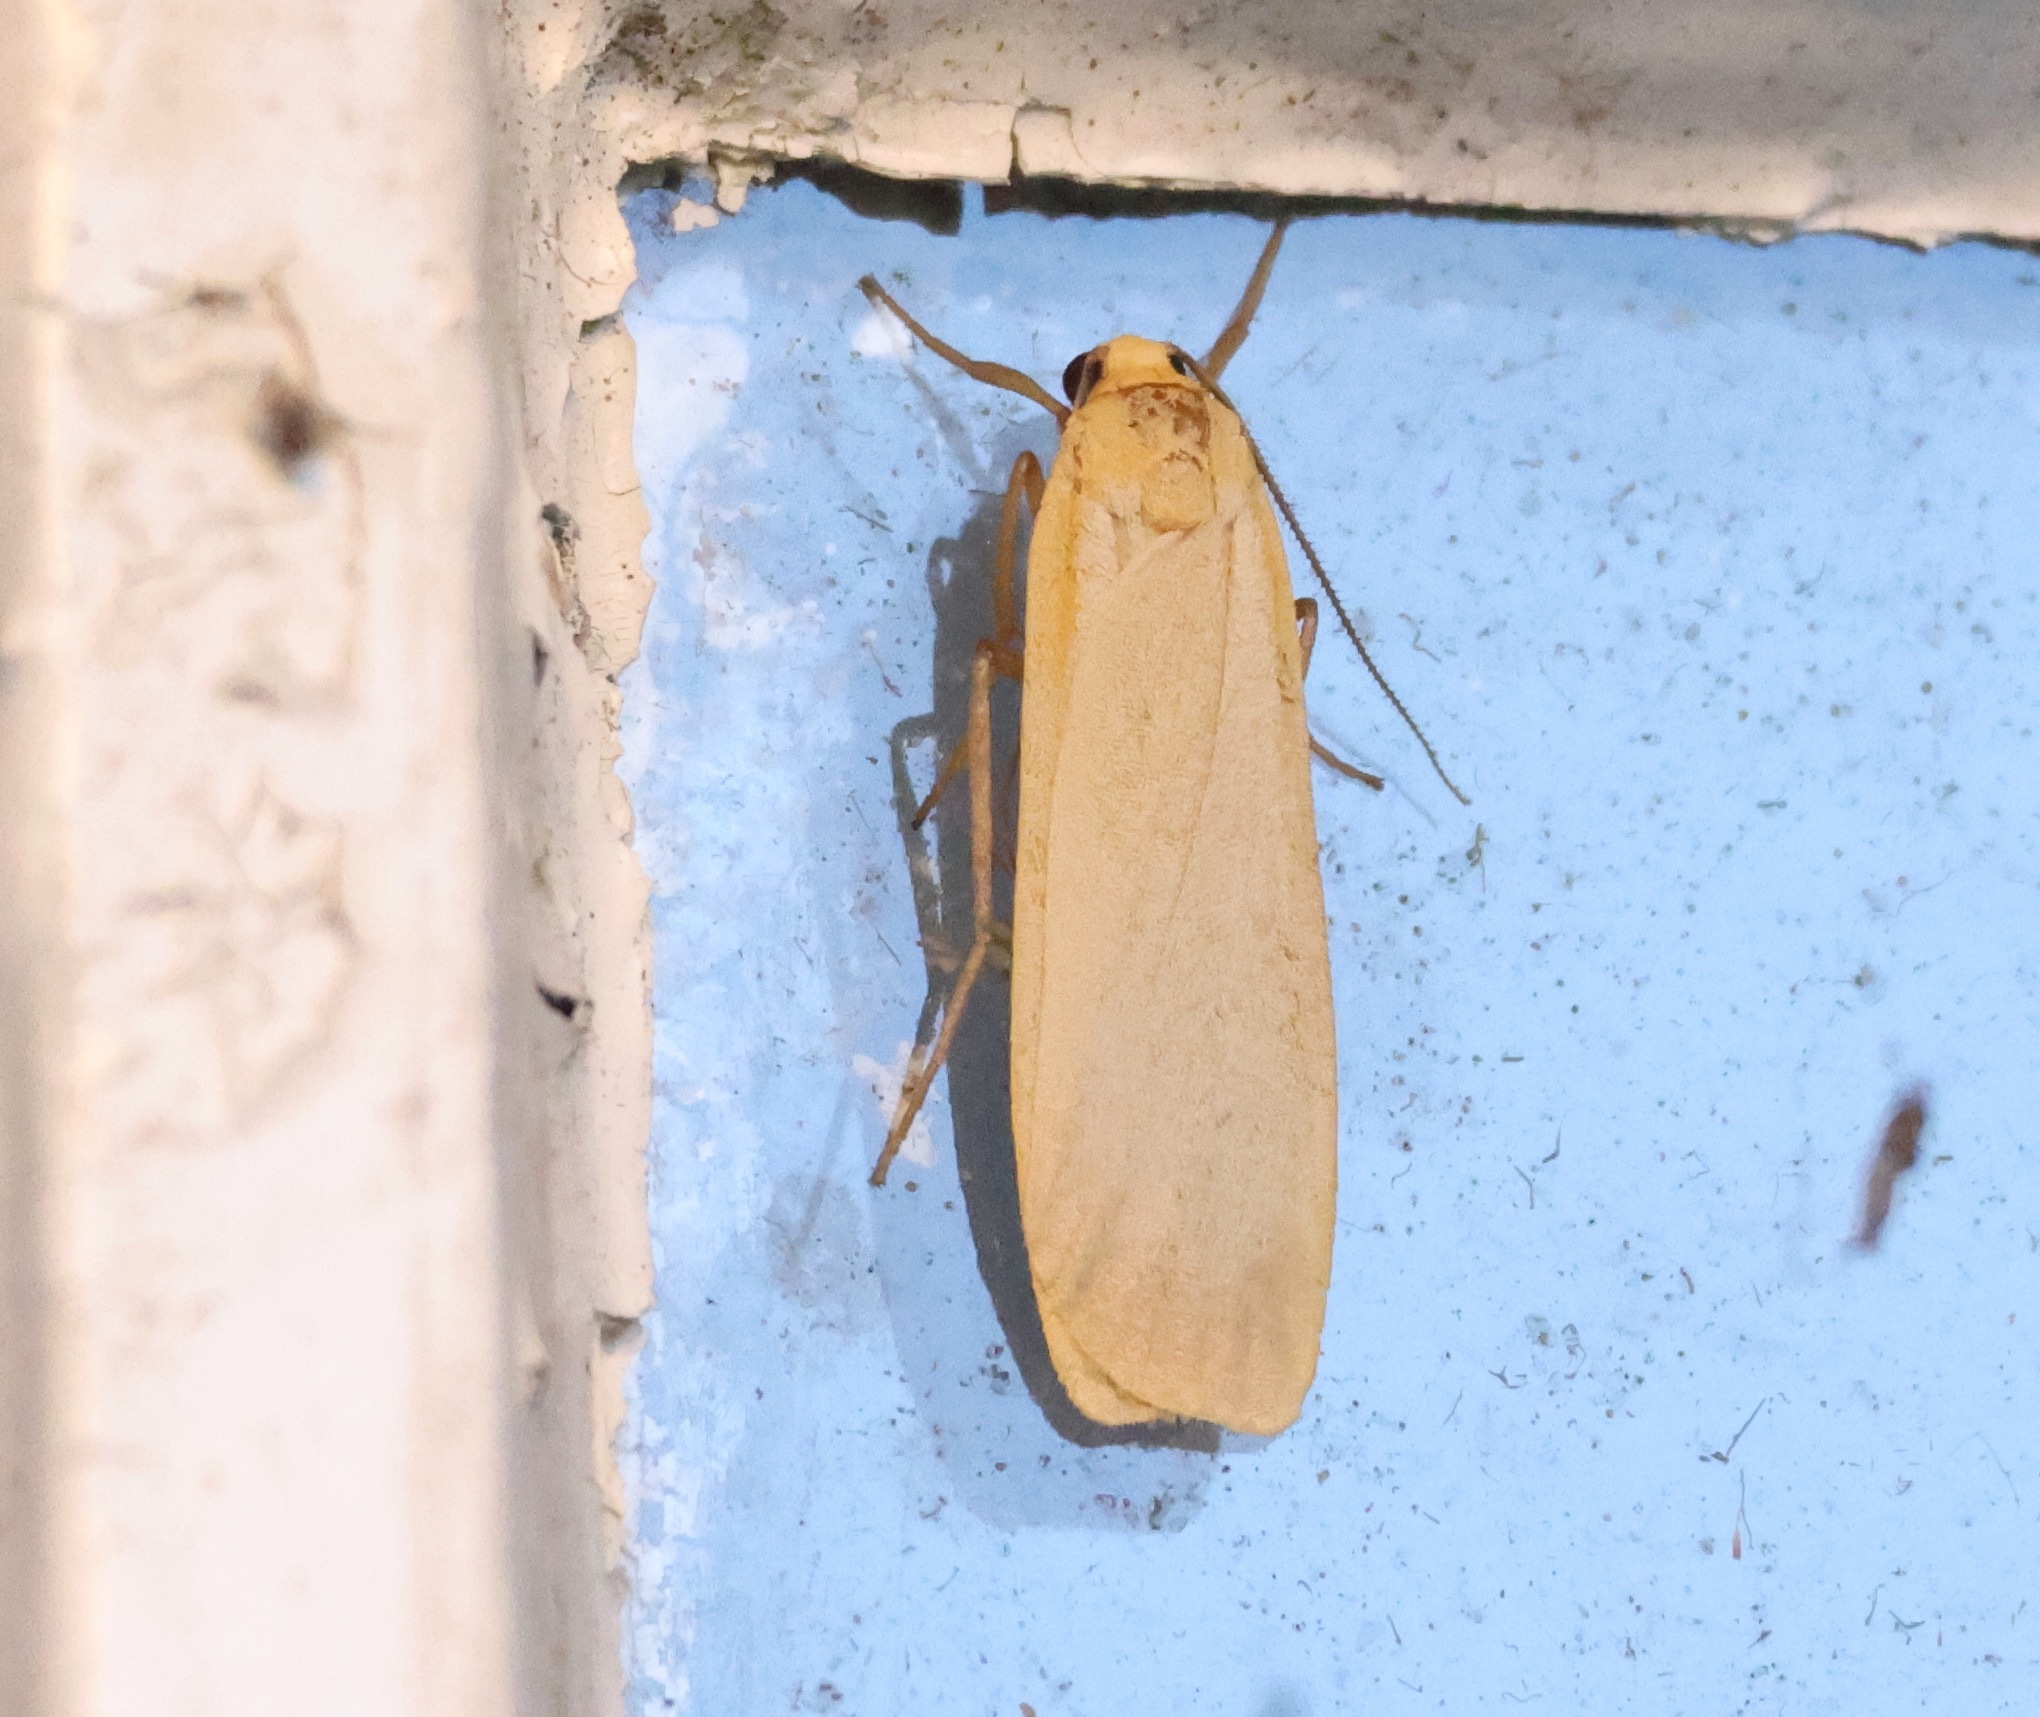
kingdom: Animalia
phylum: Arthropoda
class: Insecta
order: Lepidoptera
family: Erebidae
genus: Katha
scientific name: Katha depressa
